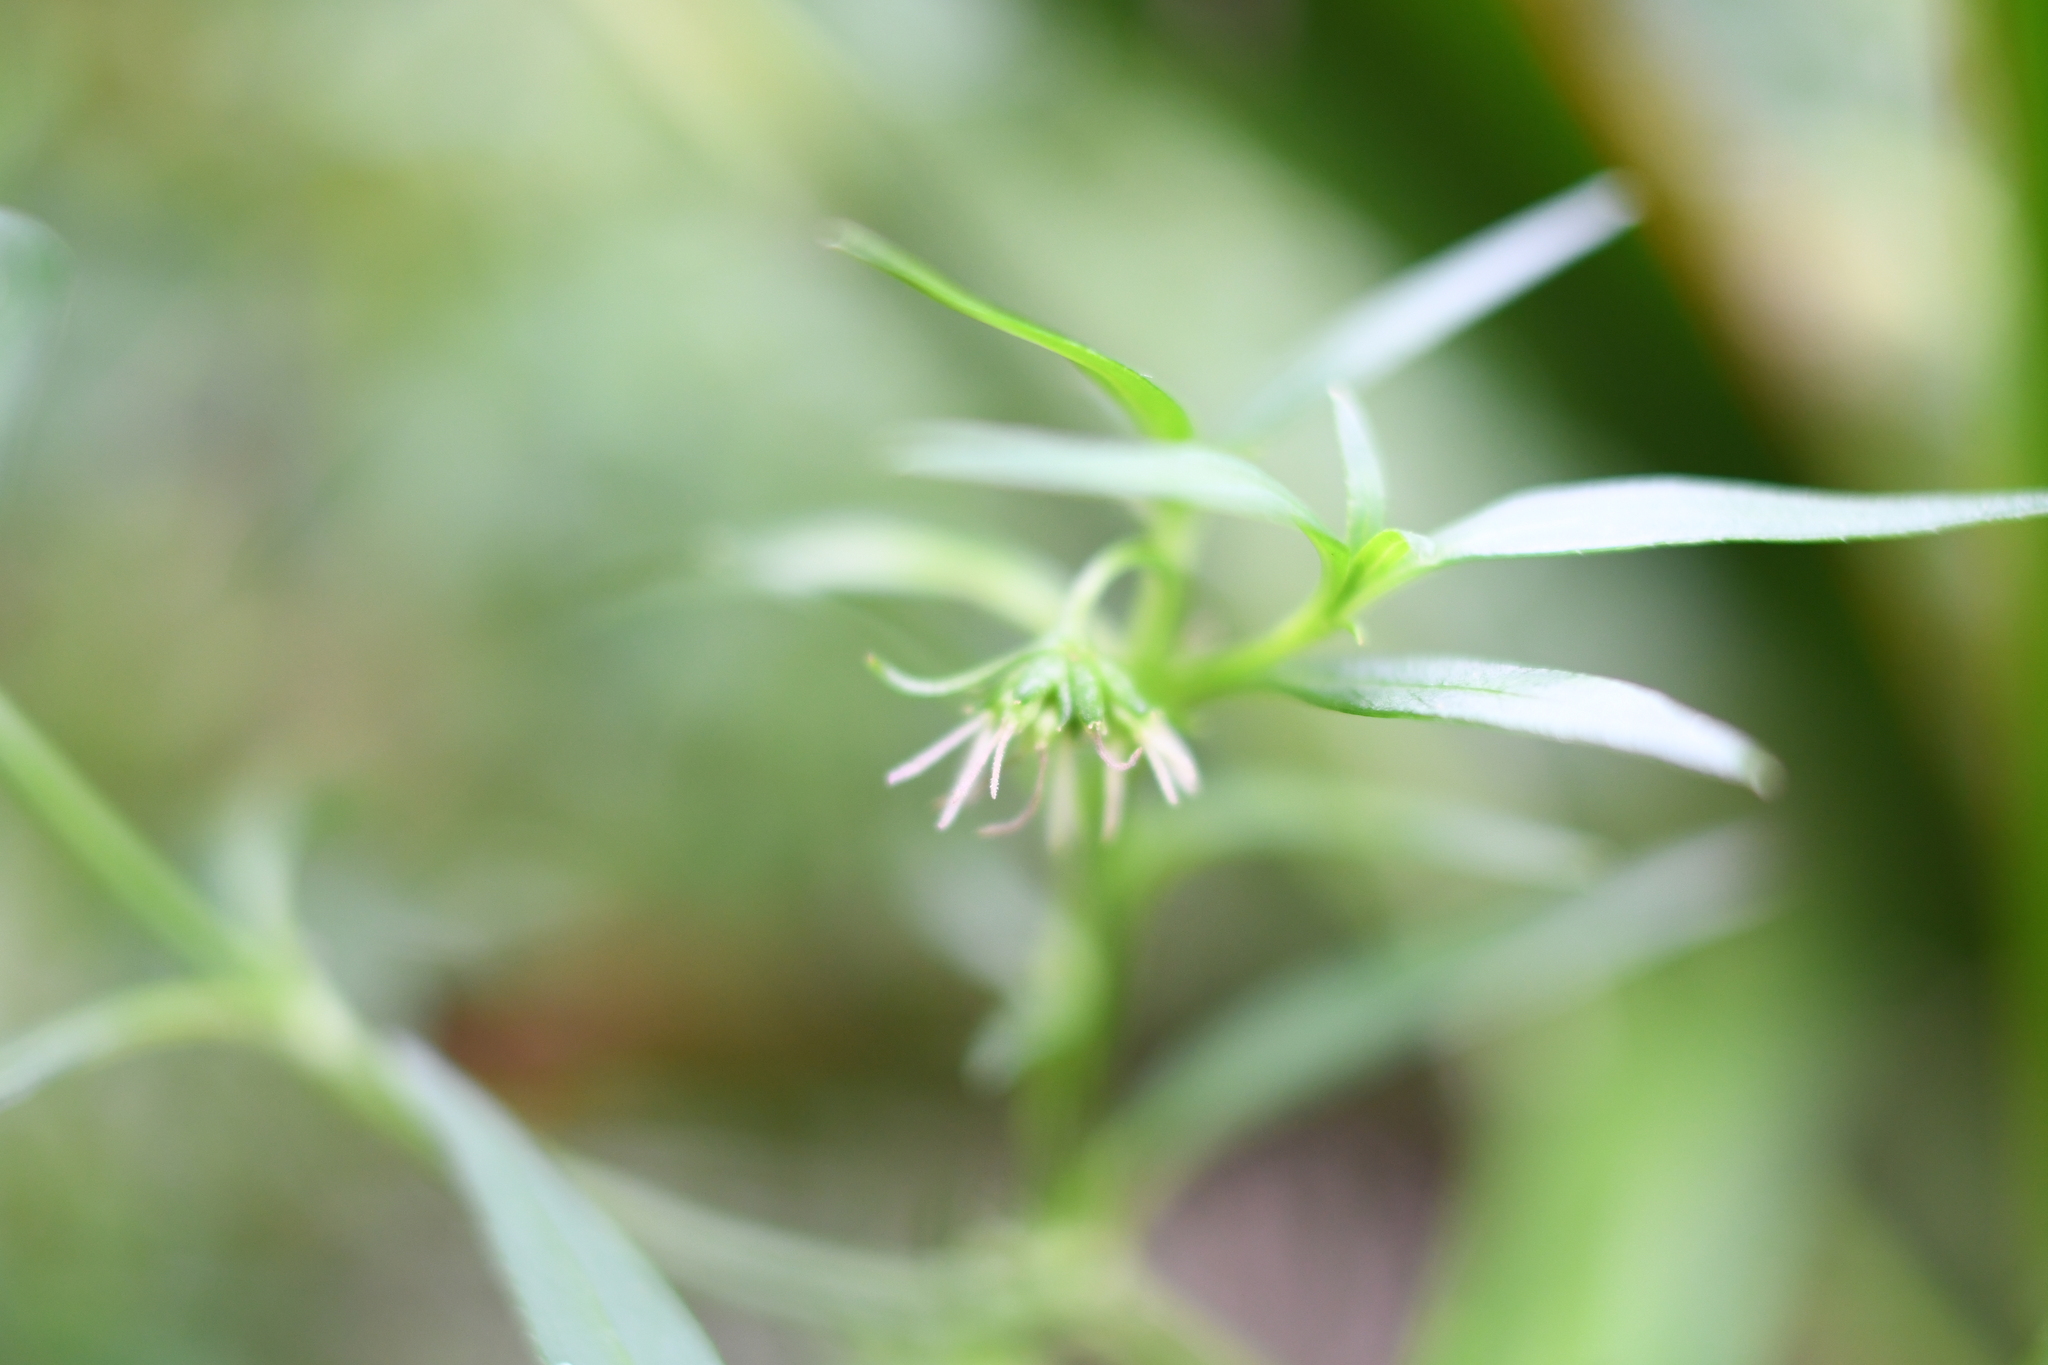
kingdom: Plantae
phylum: Tracheophyta
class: Magnoliopsida
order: Gentianales
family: Rubiaceae
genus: Opercularia
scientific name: Opercularia volubilis
